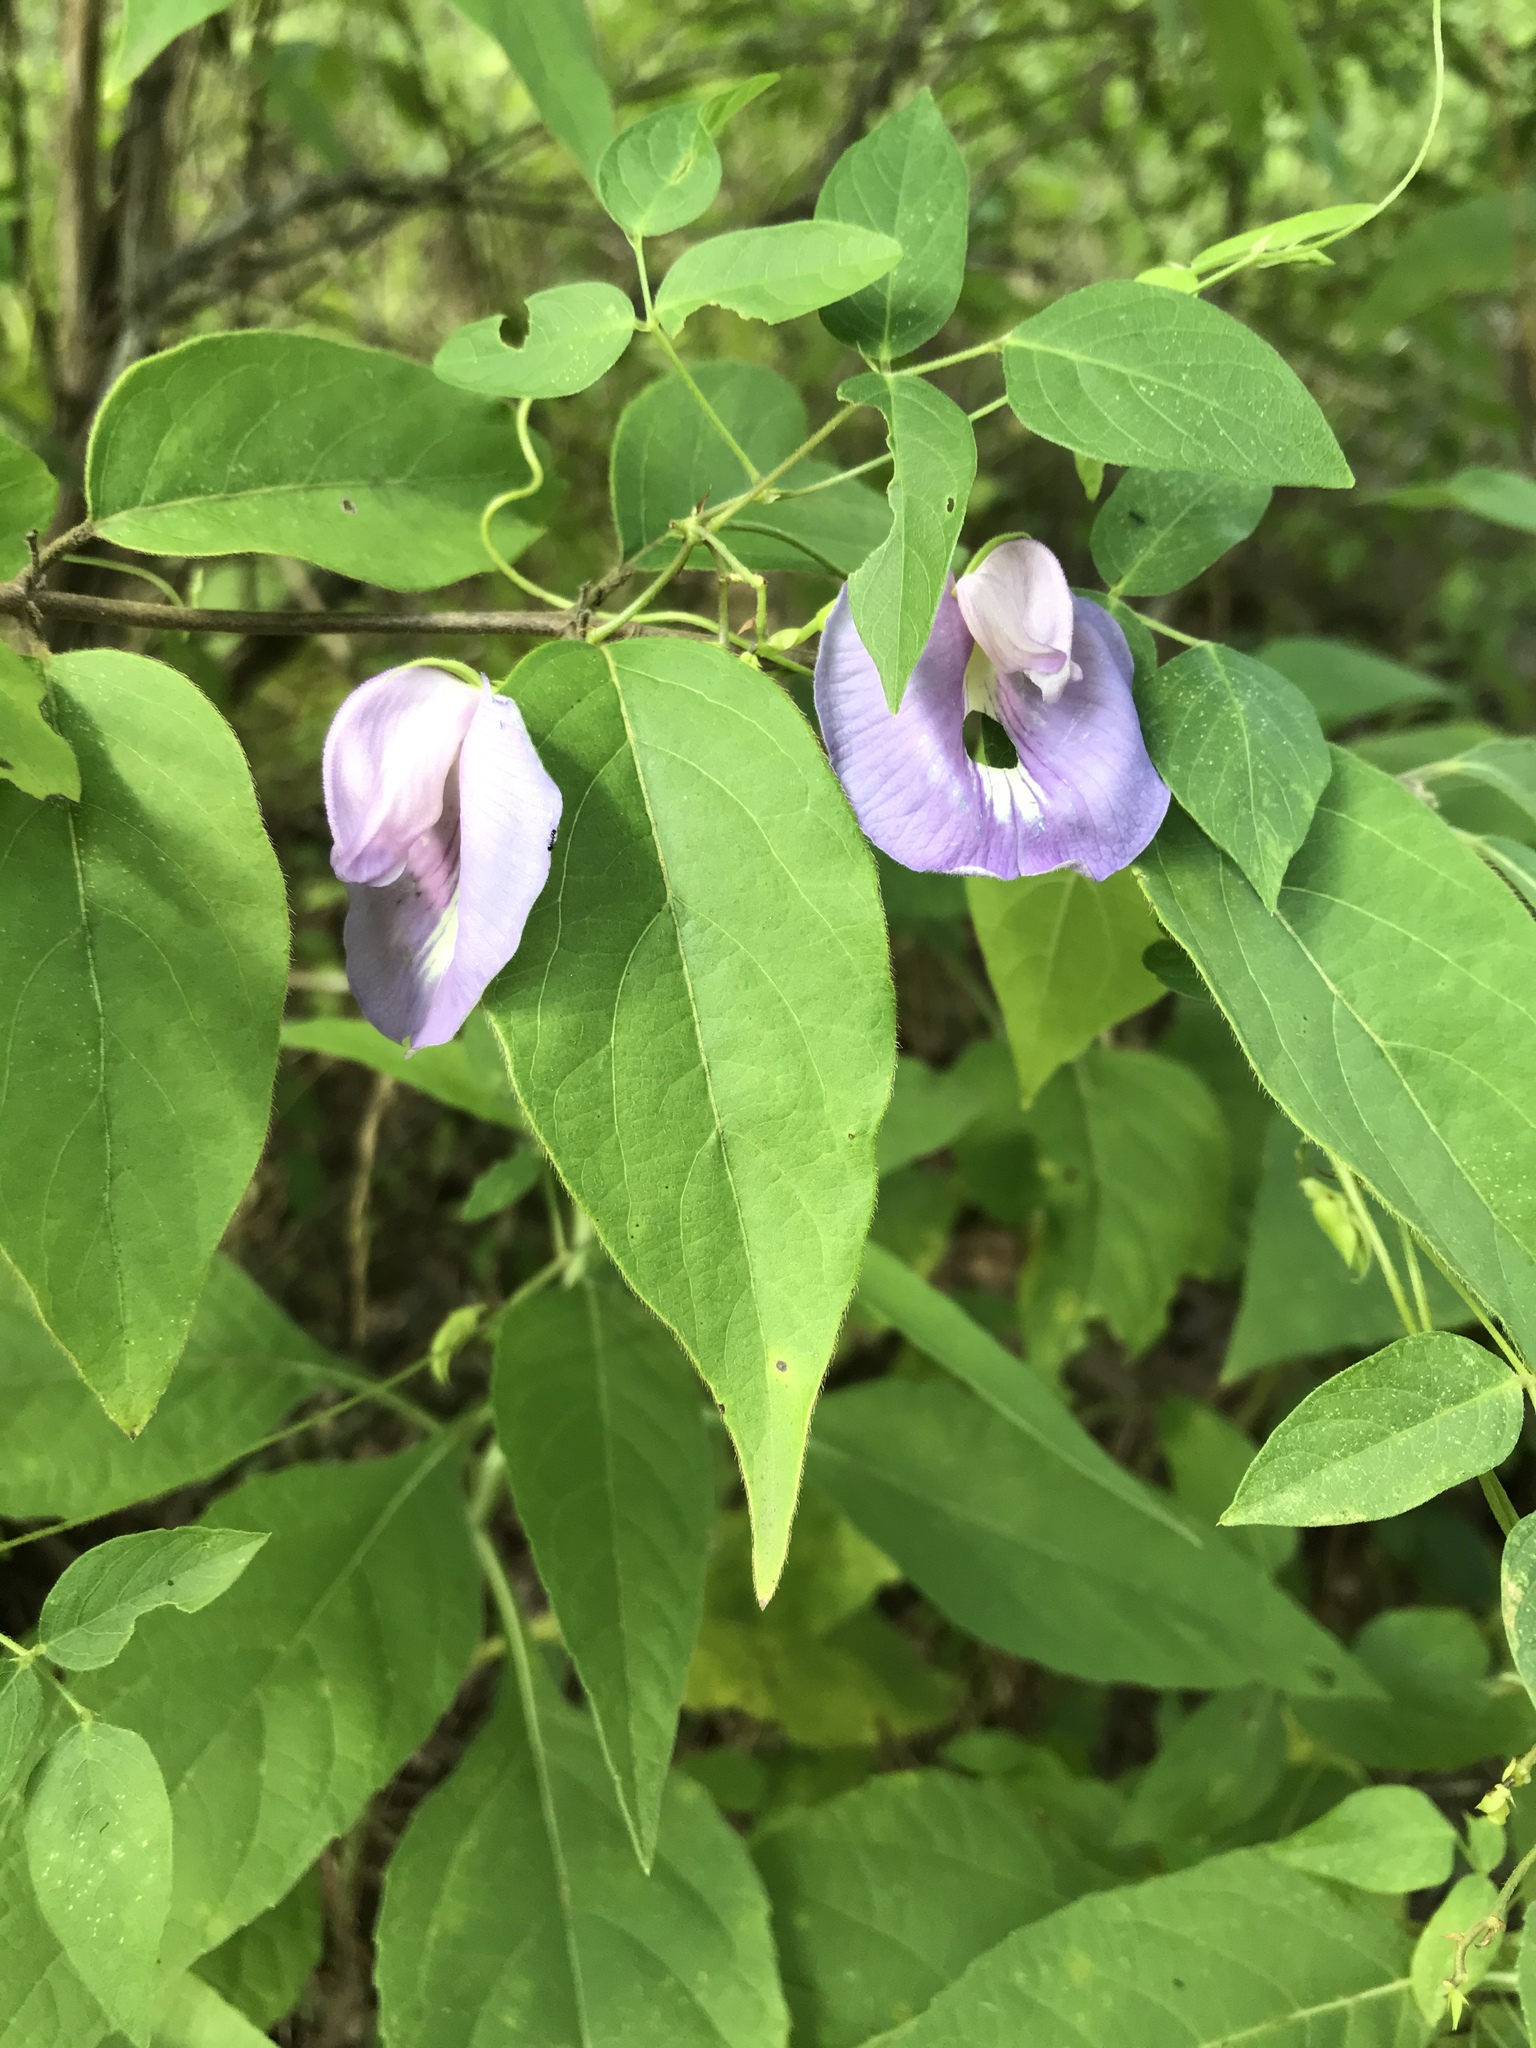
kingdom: Plantae
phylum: Tracheophyta
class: Magnoliopsida
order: Fabales
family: Fabaceae
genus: Centrosema
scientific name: Centrosema virginianum
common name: Butterfly-pea
